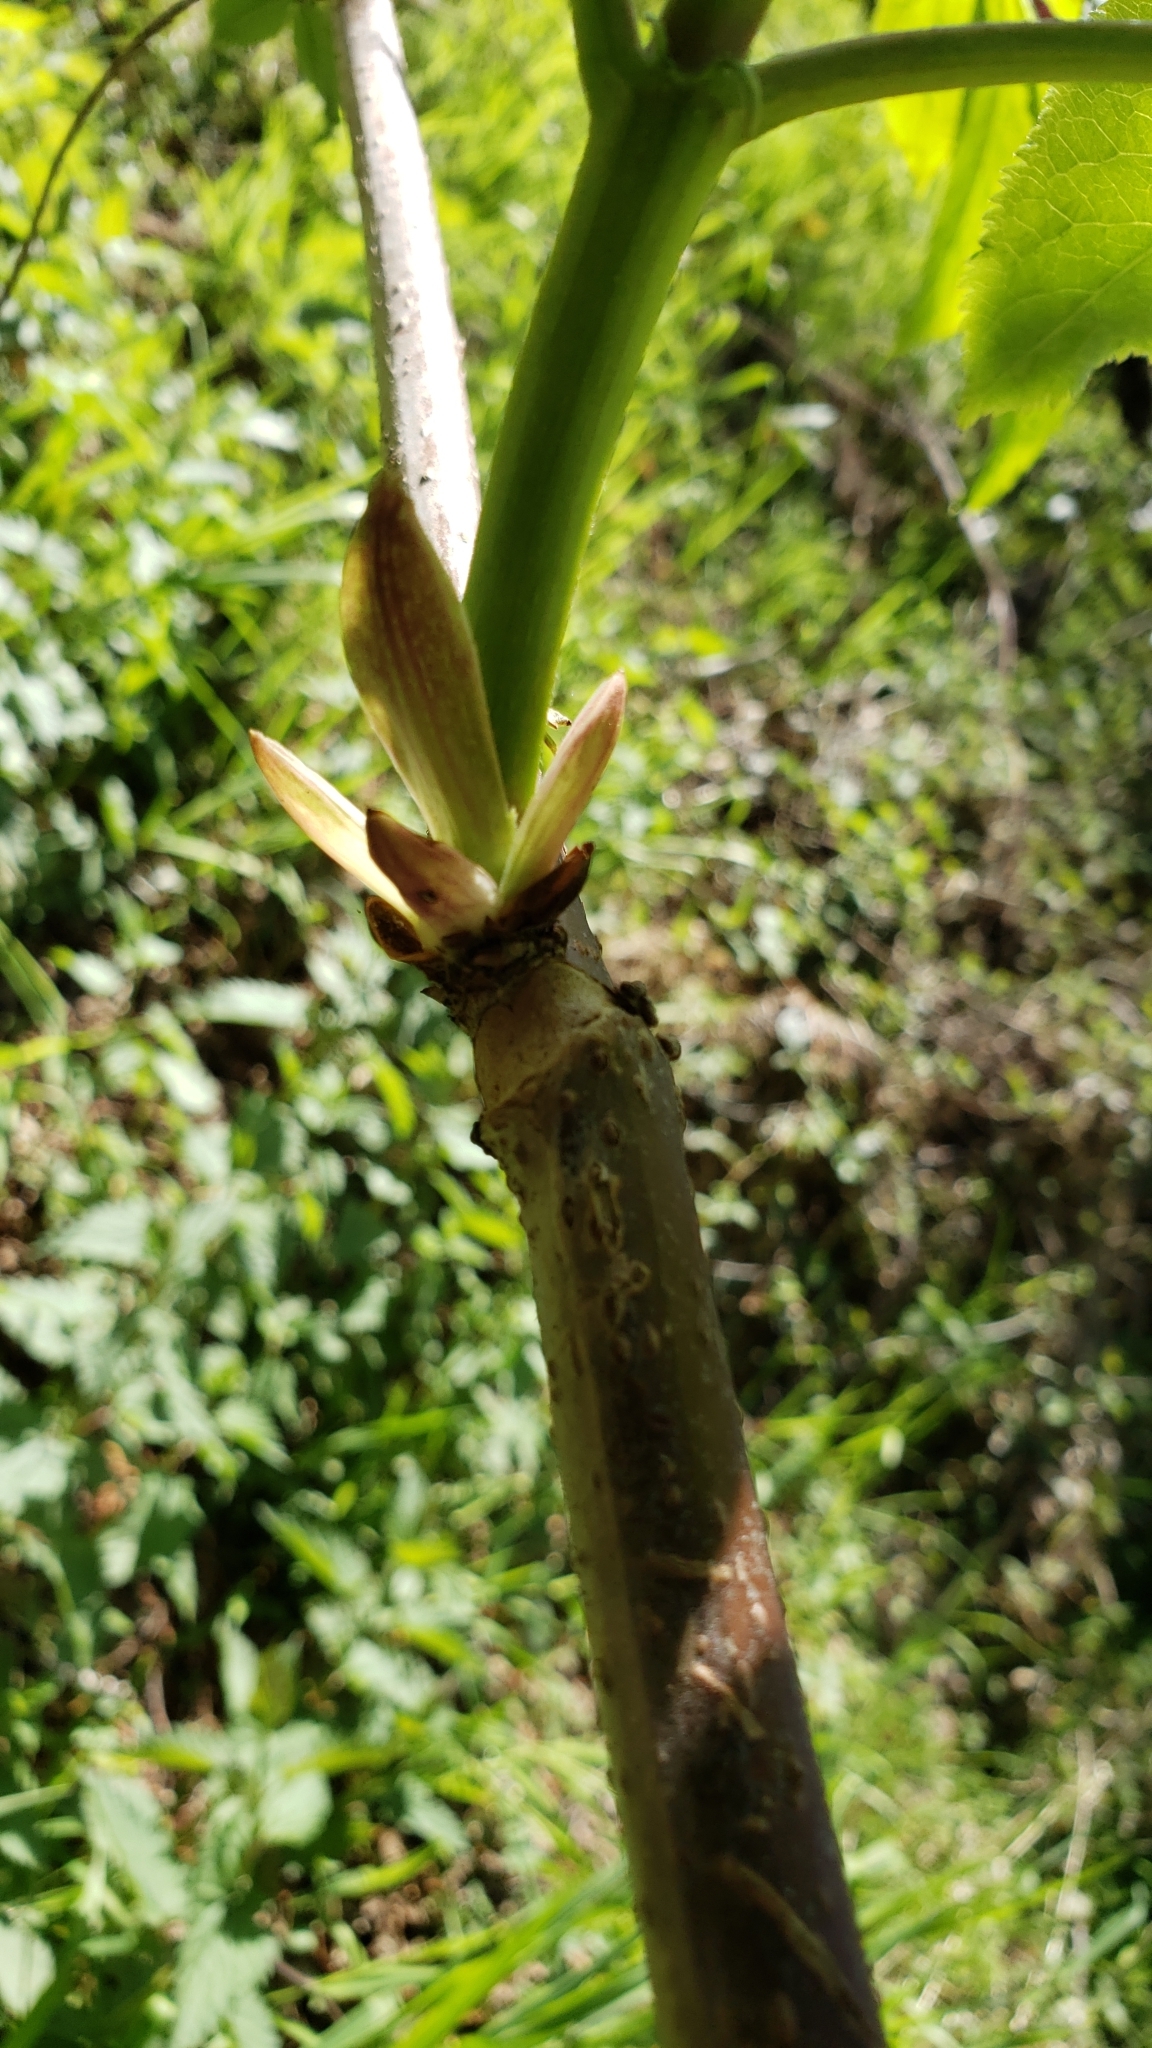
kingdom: Plantae
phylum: Tracheophyta
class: Magnoliopsida
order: Dipsacales
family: Viburnaceae
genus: Sambucus
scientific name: Sambucus racemosa
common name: Red-berried elder
